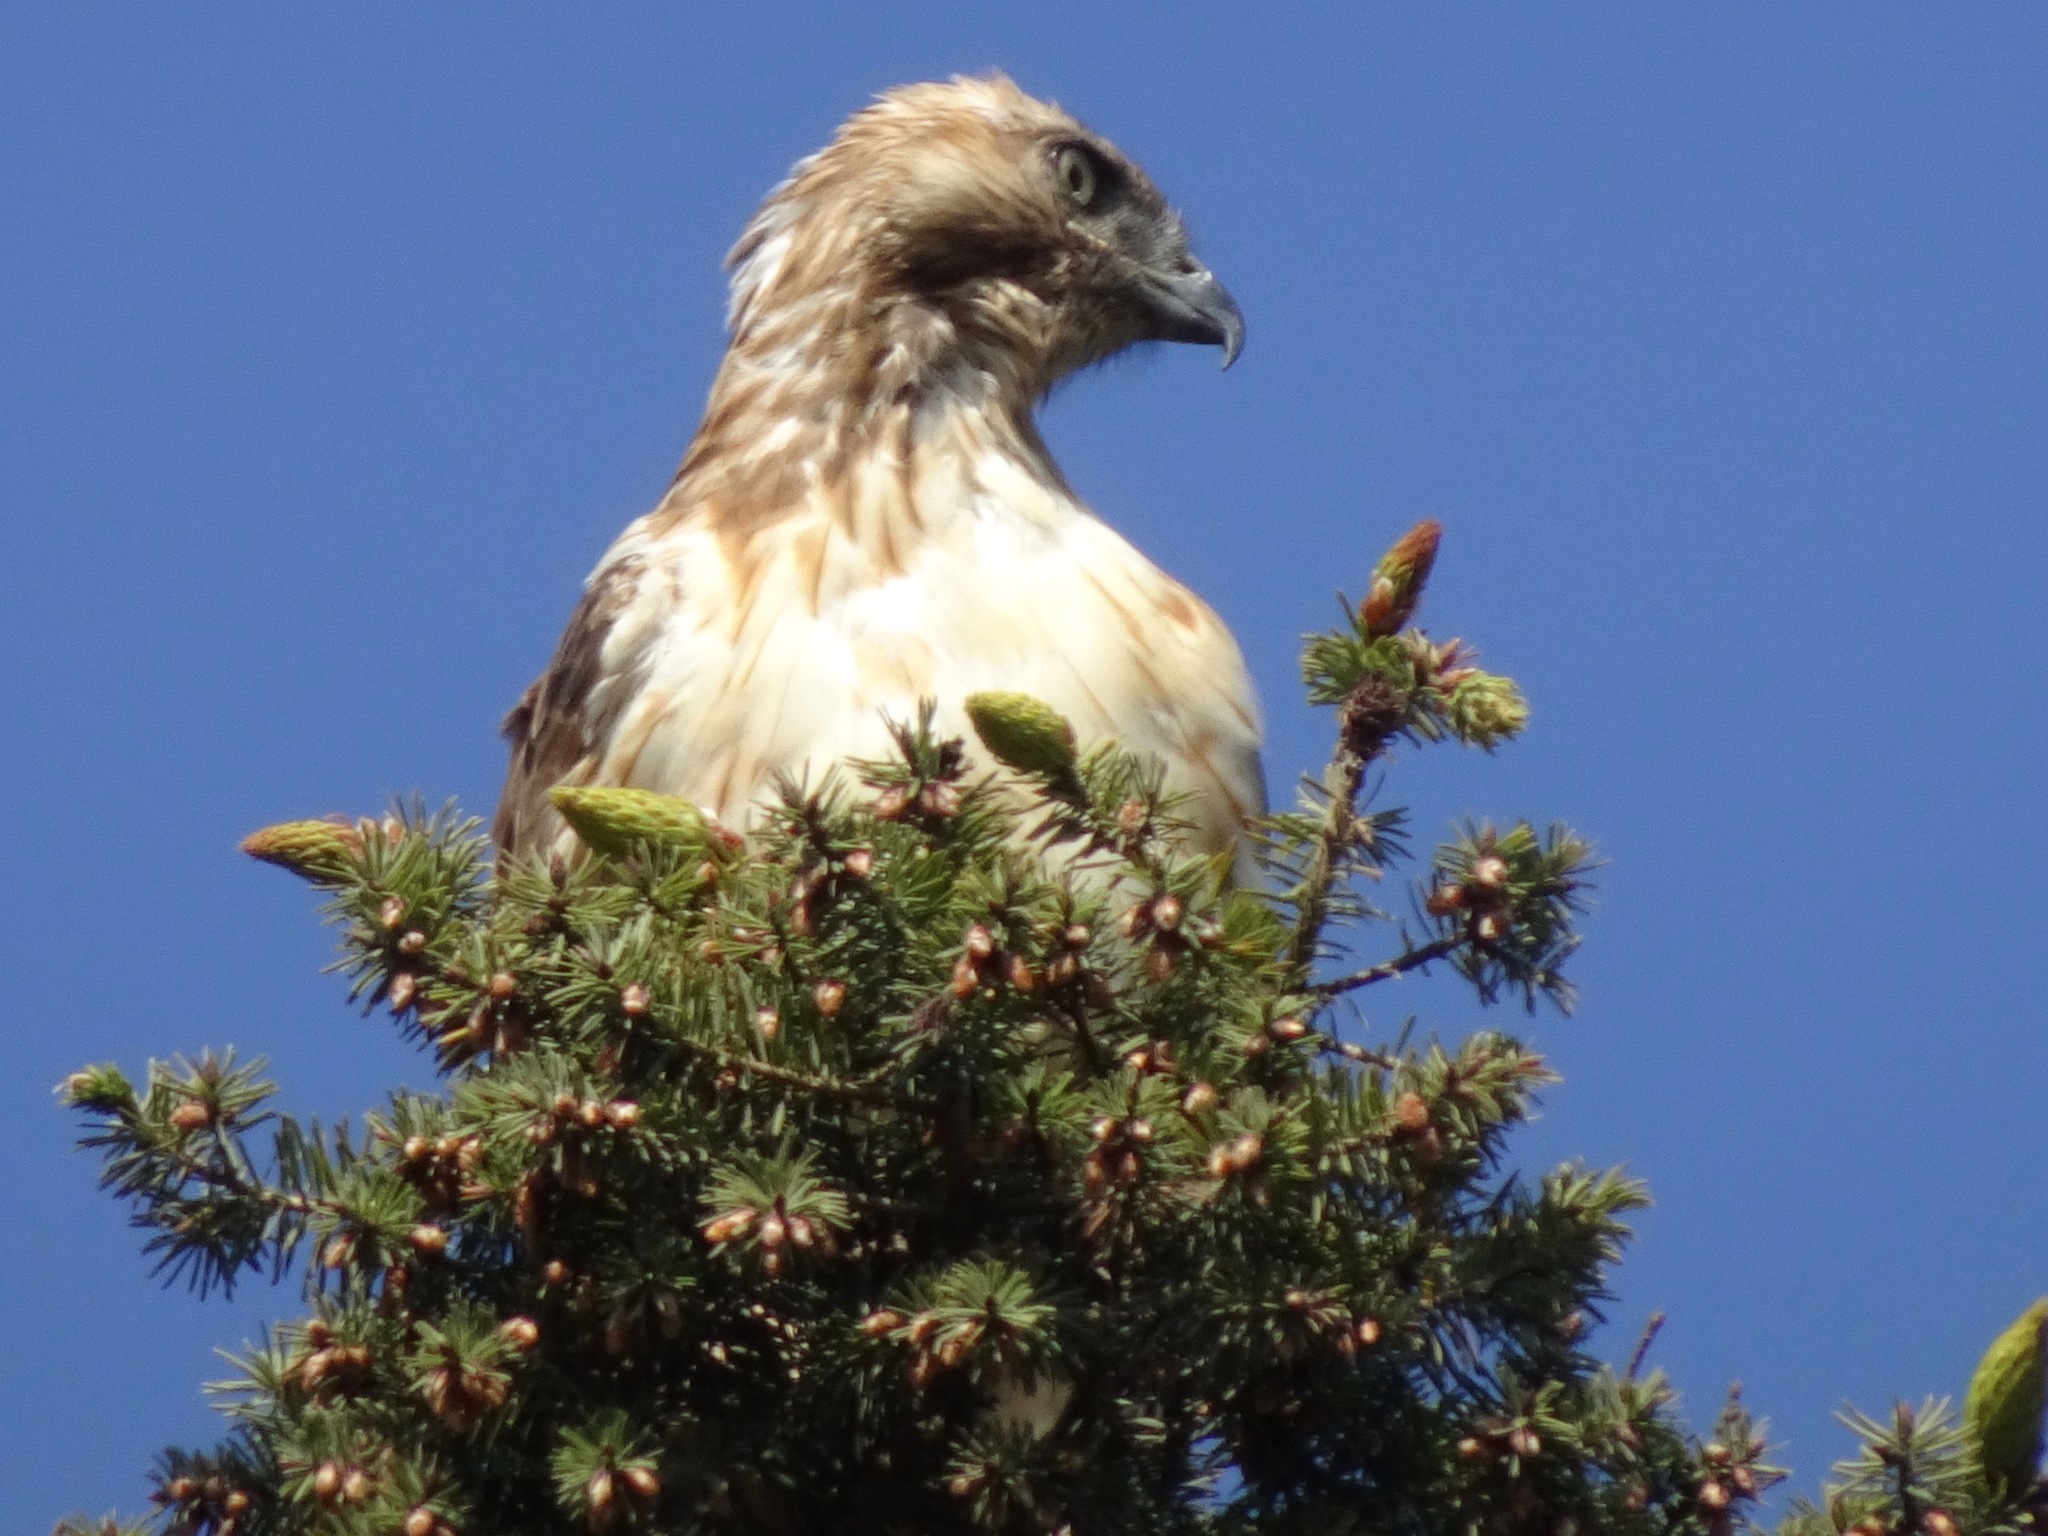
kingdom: Animalia
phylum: Chordata
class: Aves
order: Accipitriformes
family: Accipitridae
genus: Buteo
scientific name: Buteo jamaicensis
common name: Red-tailed hawk
